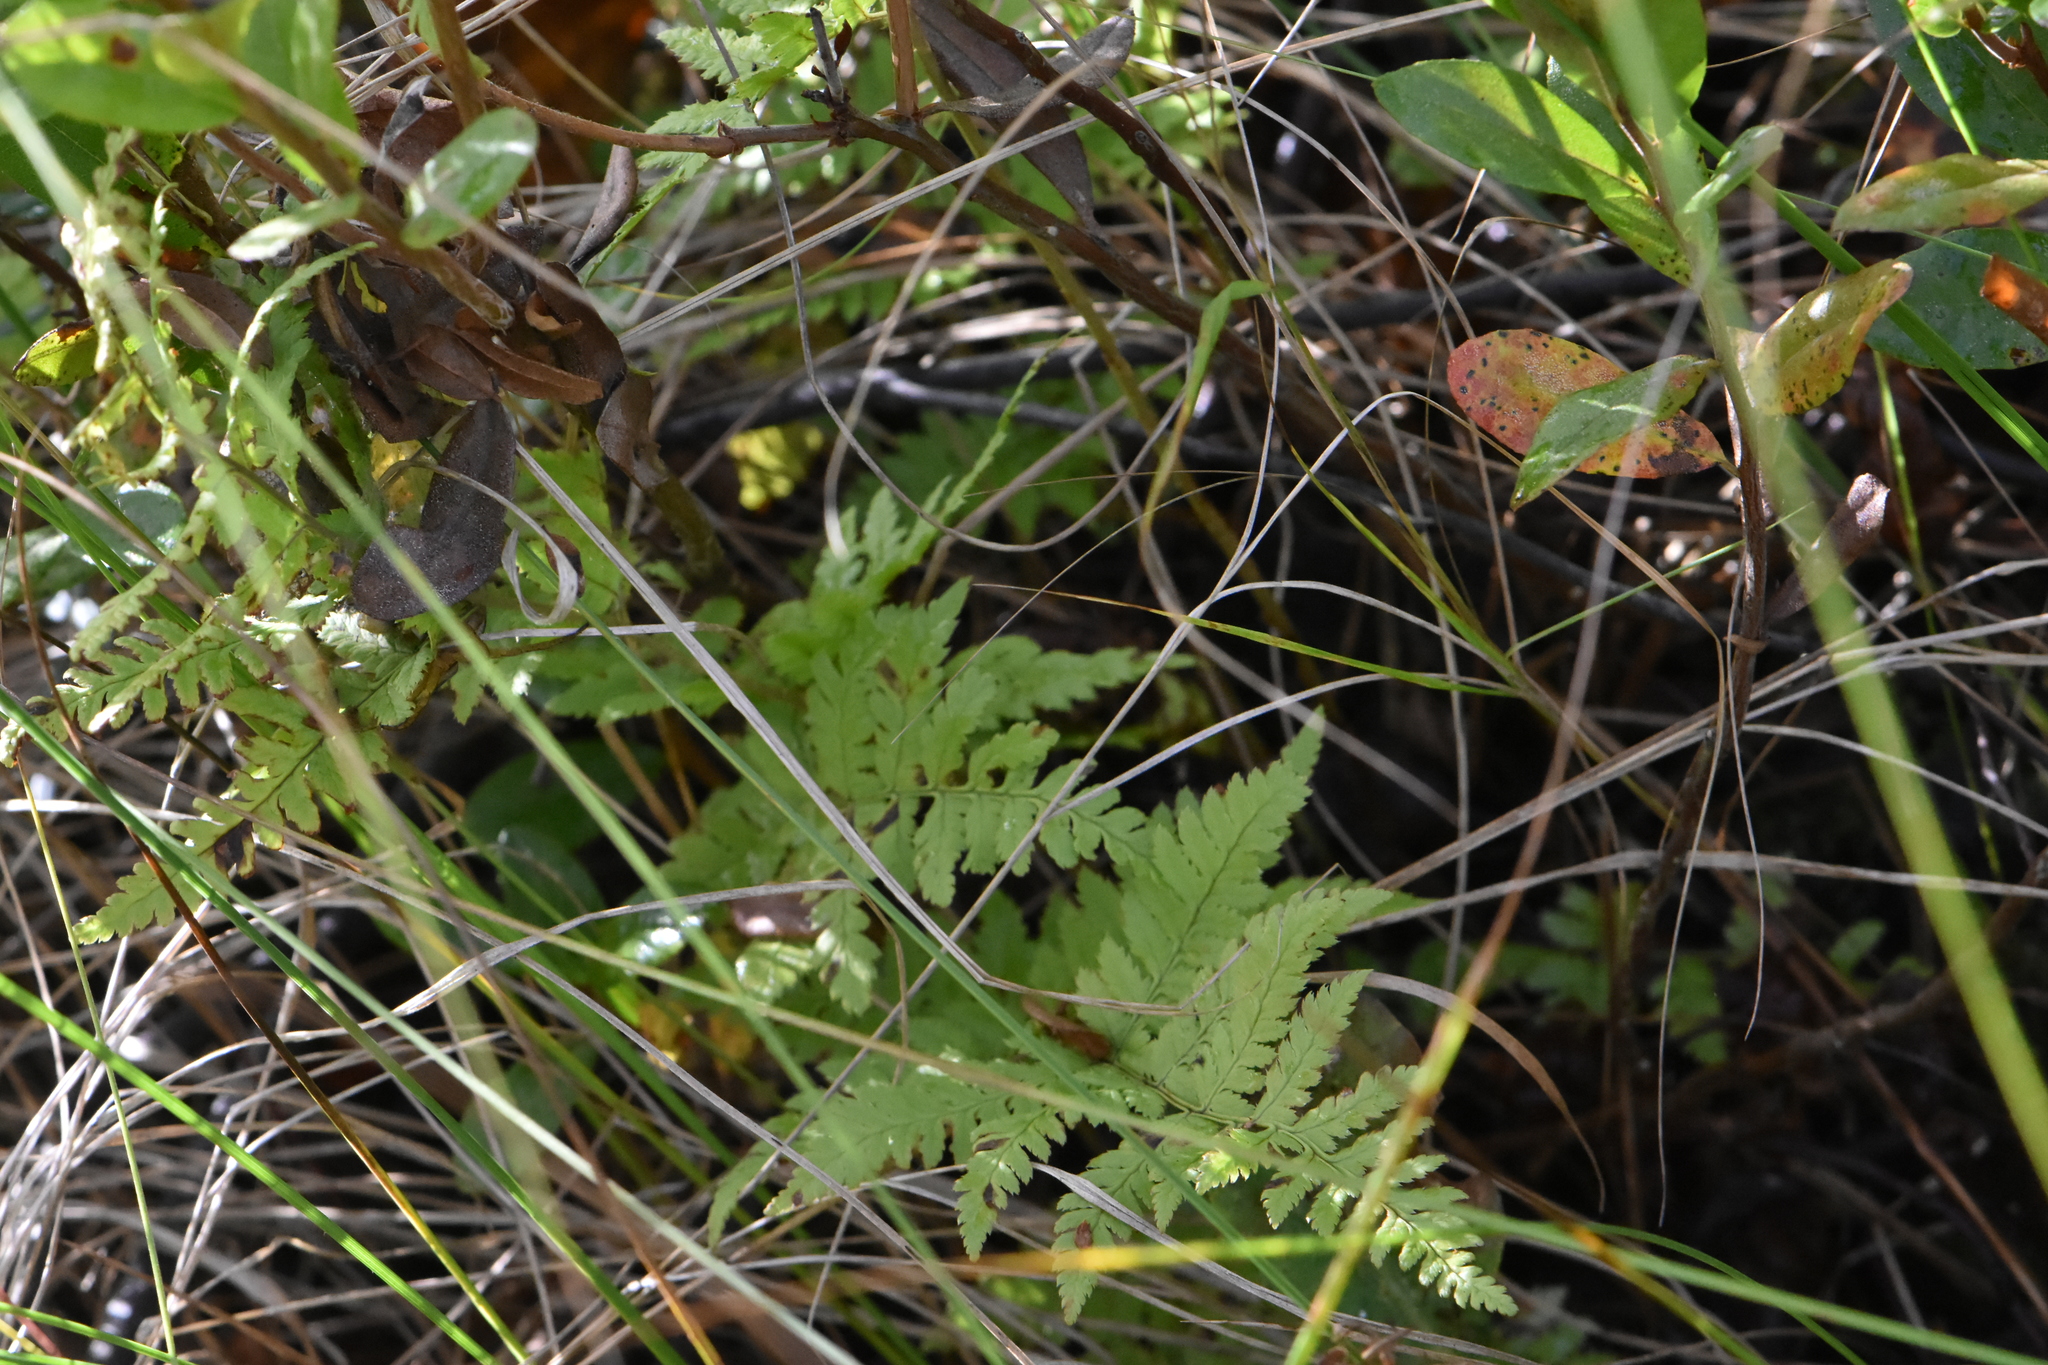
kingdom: Plantae
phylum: Tracheophyta
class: Polypodiopsida
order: Polypodiales
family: Dryopteridaceae
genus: Dryopteris
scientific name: Dryopteris carthusiana
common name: Narrow buckler-fern
